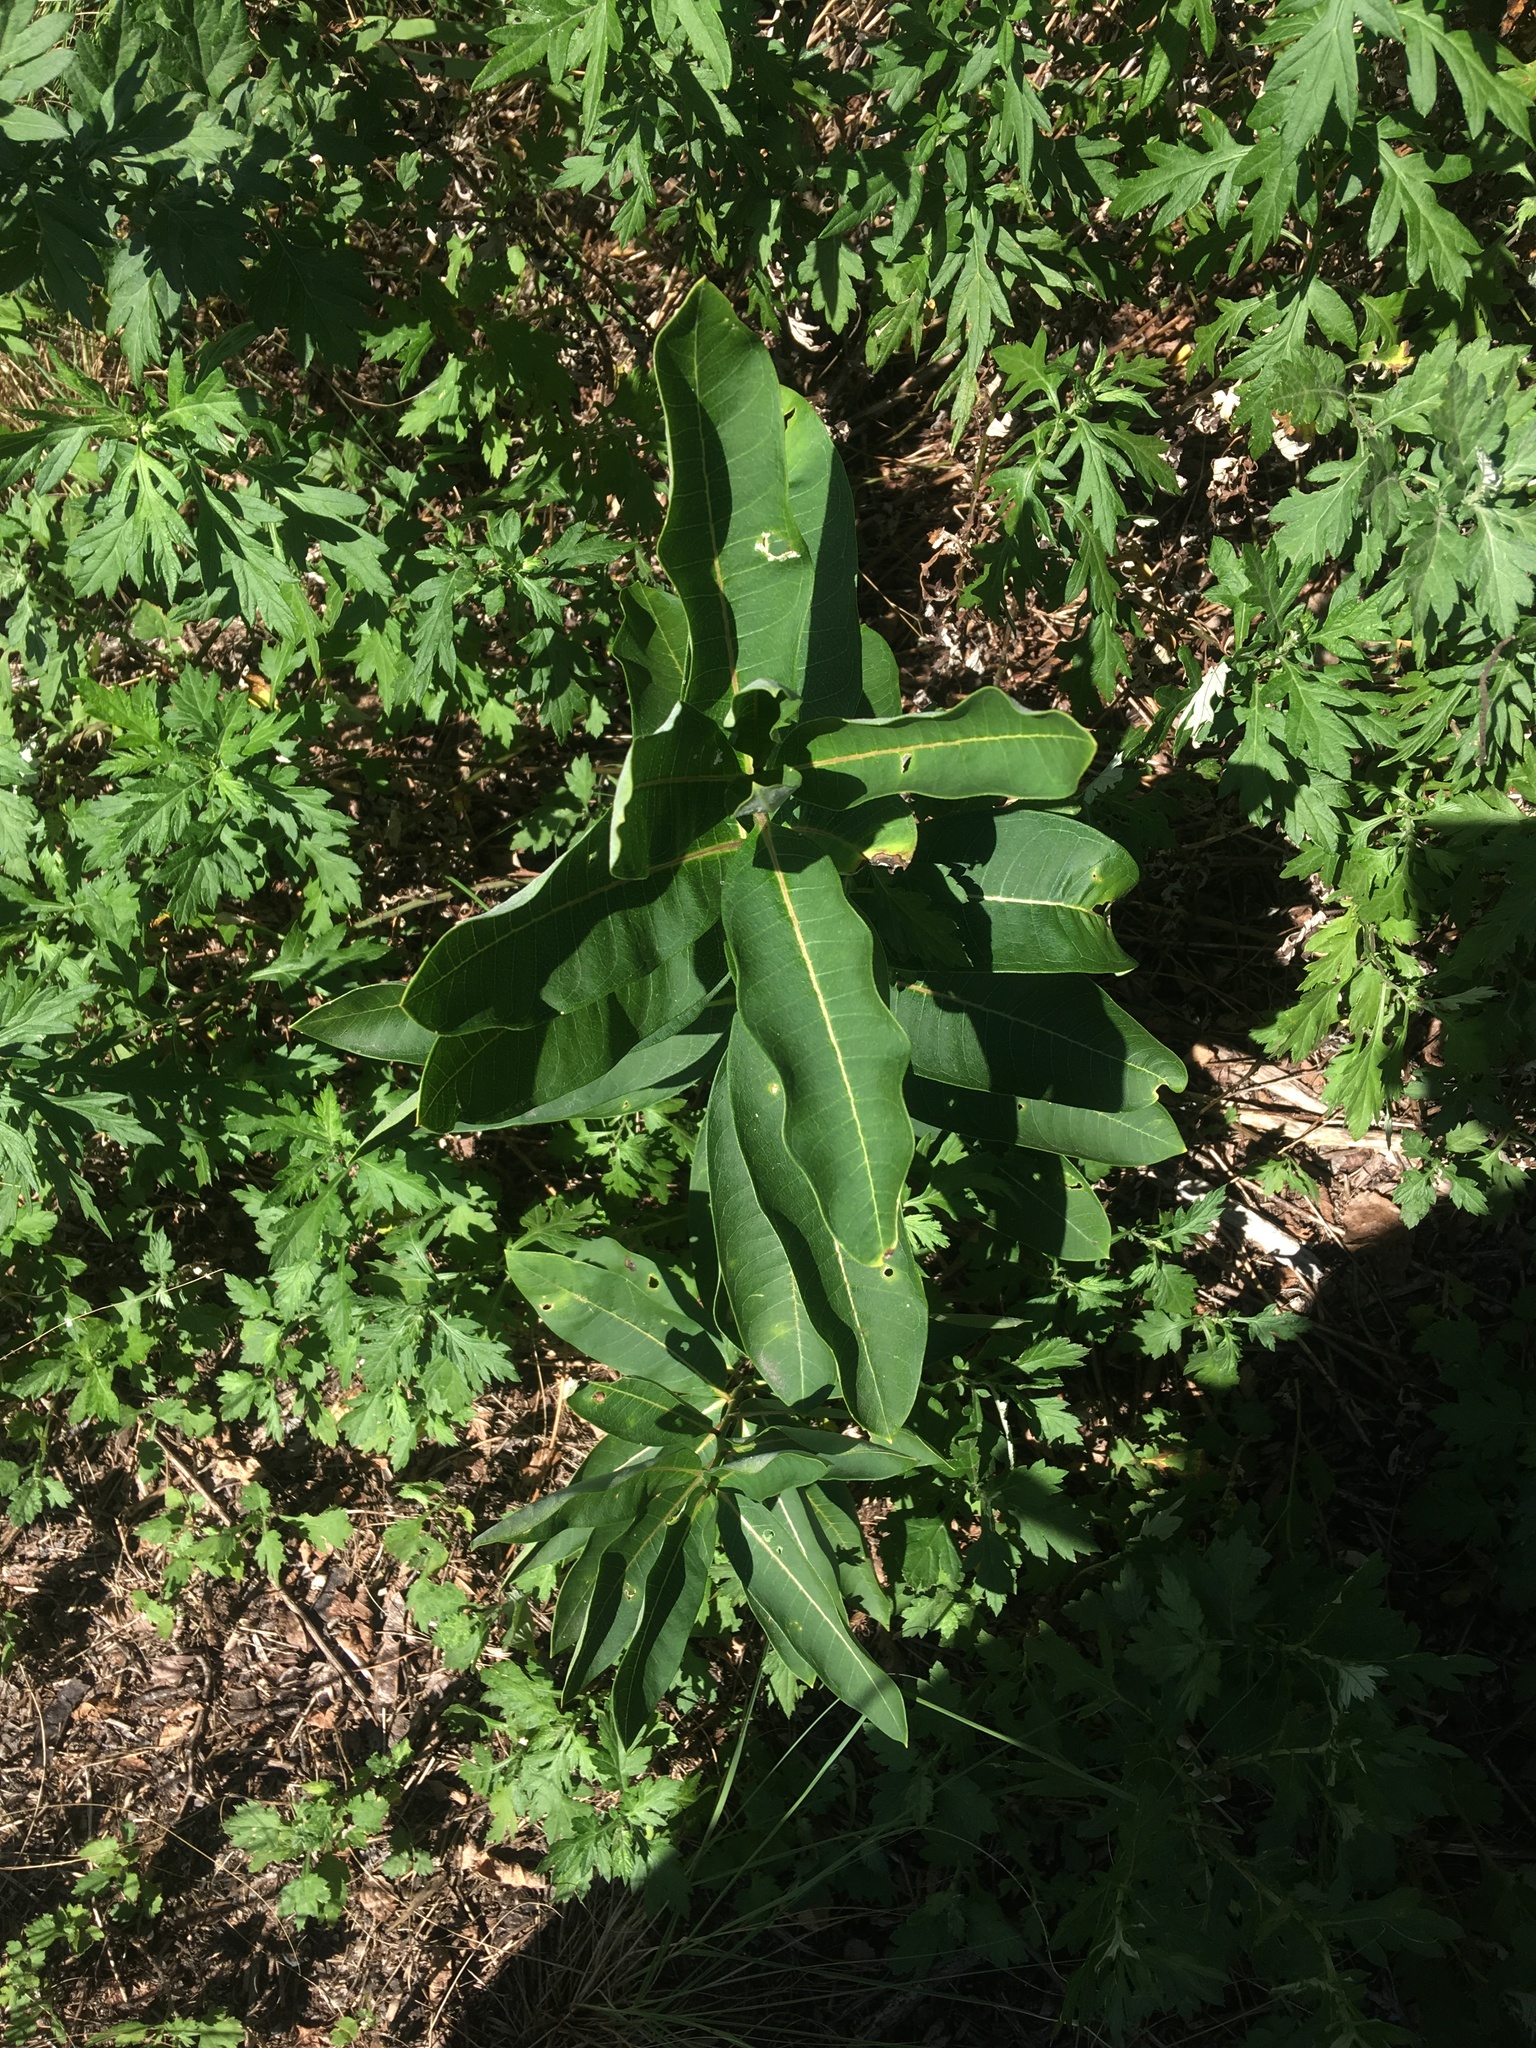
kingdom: Plantae
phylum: Tracheophyta
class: Magnoliopsida
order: Gentianales
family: Apocynaceae
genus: Asclepias
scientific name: Asclepias syriaca
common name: Common milkweed
